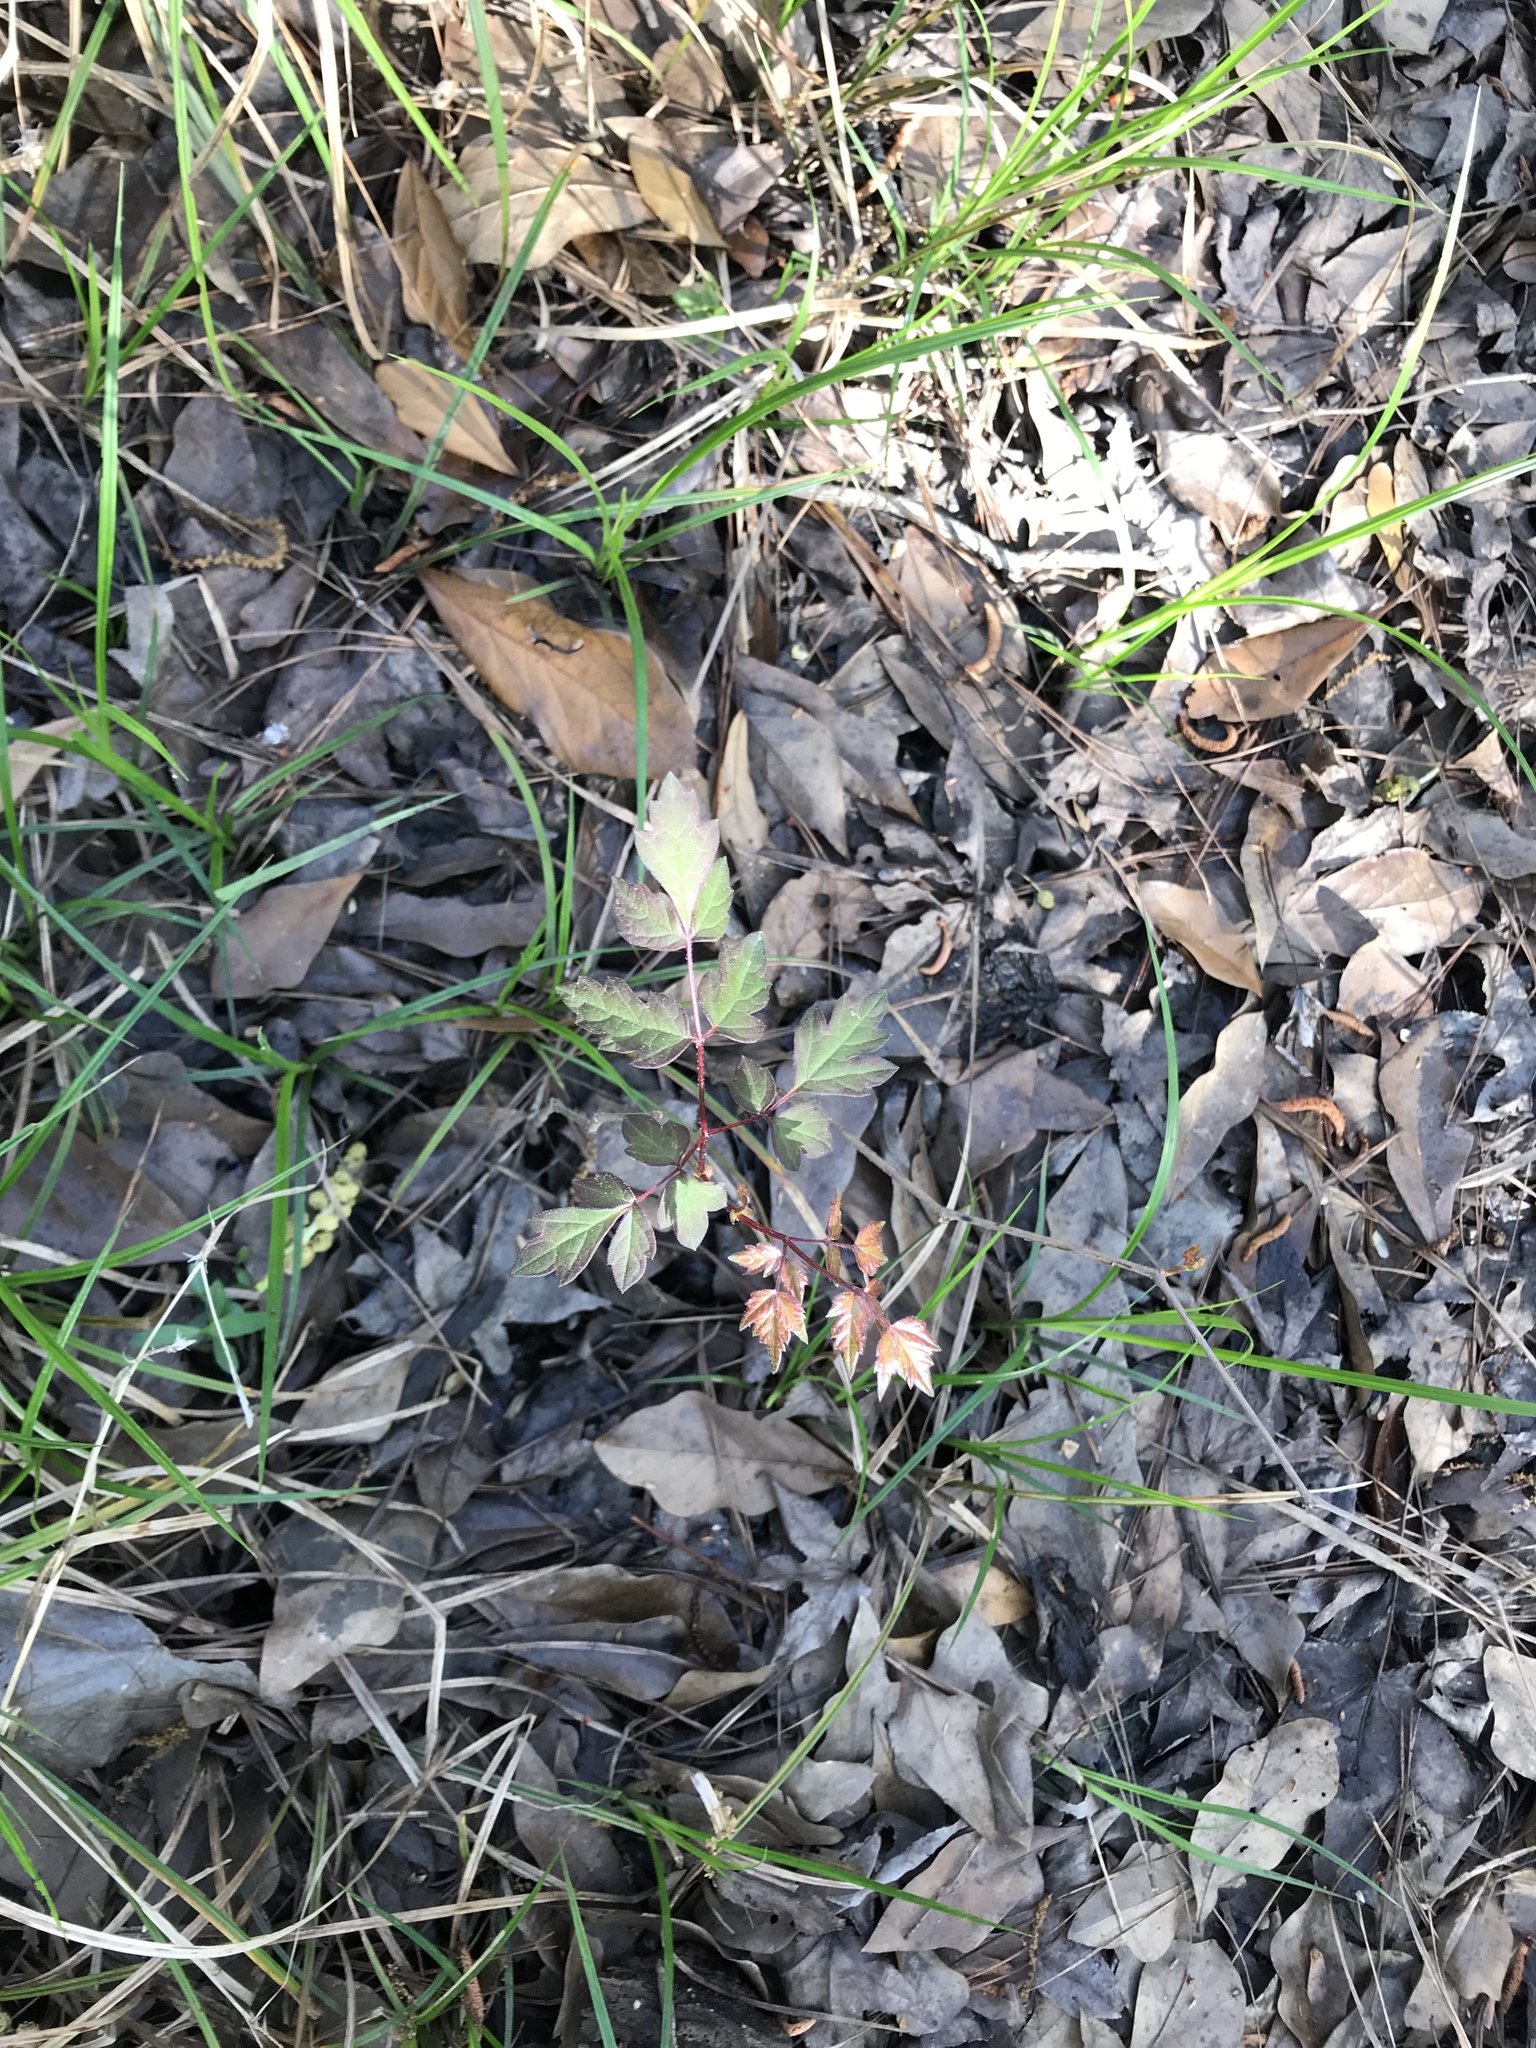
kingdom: Plantae
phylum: Tracheophyta
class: Magnoliopsida
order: Vitales
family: Vitaceae
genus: Nekemias
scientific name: Nekemias arborea
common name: Peppervine
